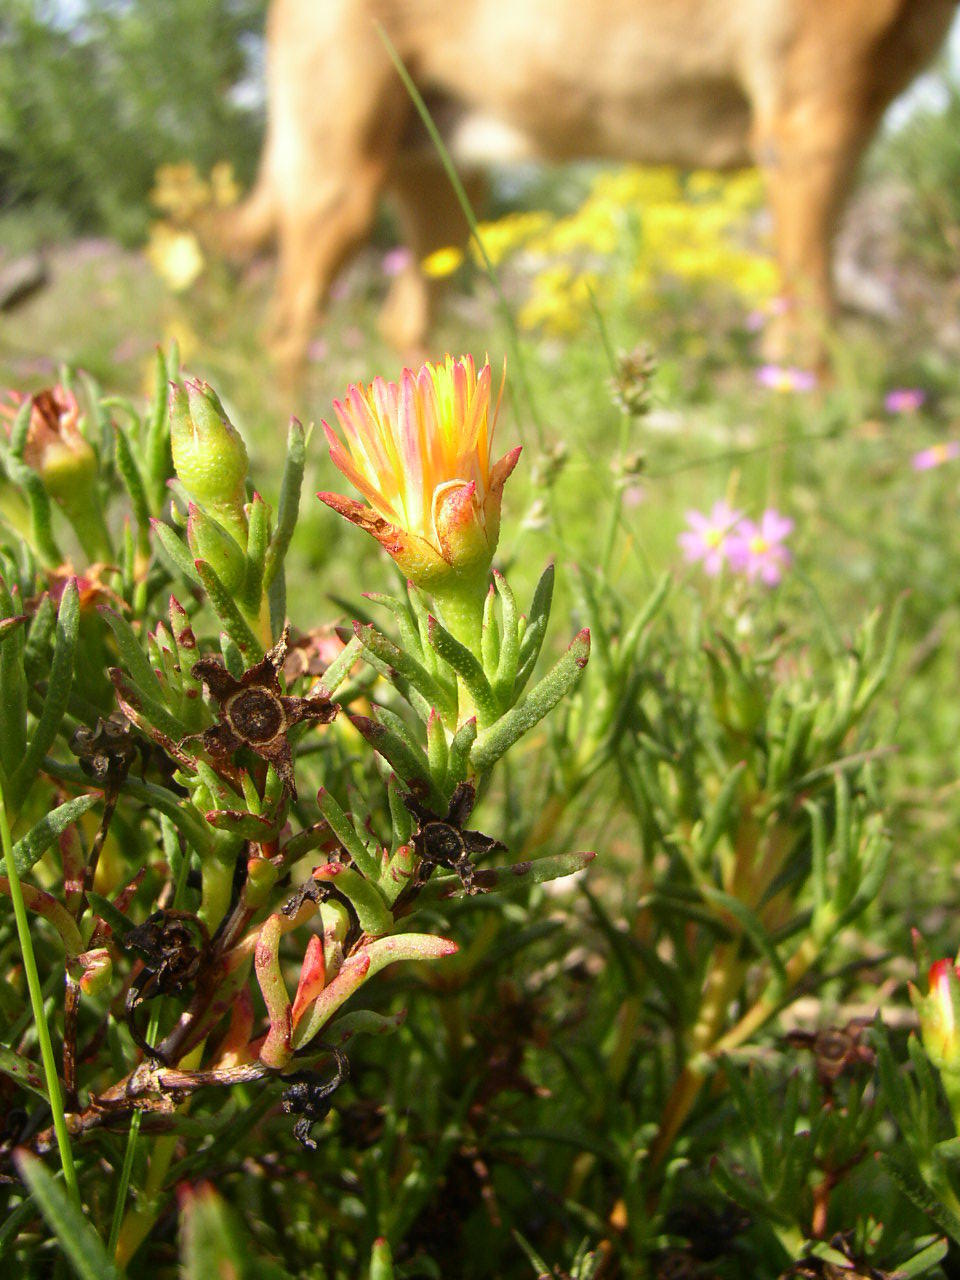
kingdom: Plantae
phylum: Tracheophyta
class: Magnoliopsida
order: Caryophyllales
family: Aizoaceae
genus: Lampranthus
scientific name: Lampranthus bicolor
